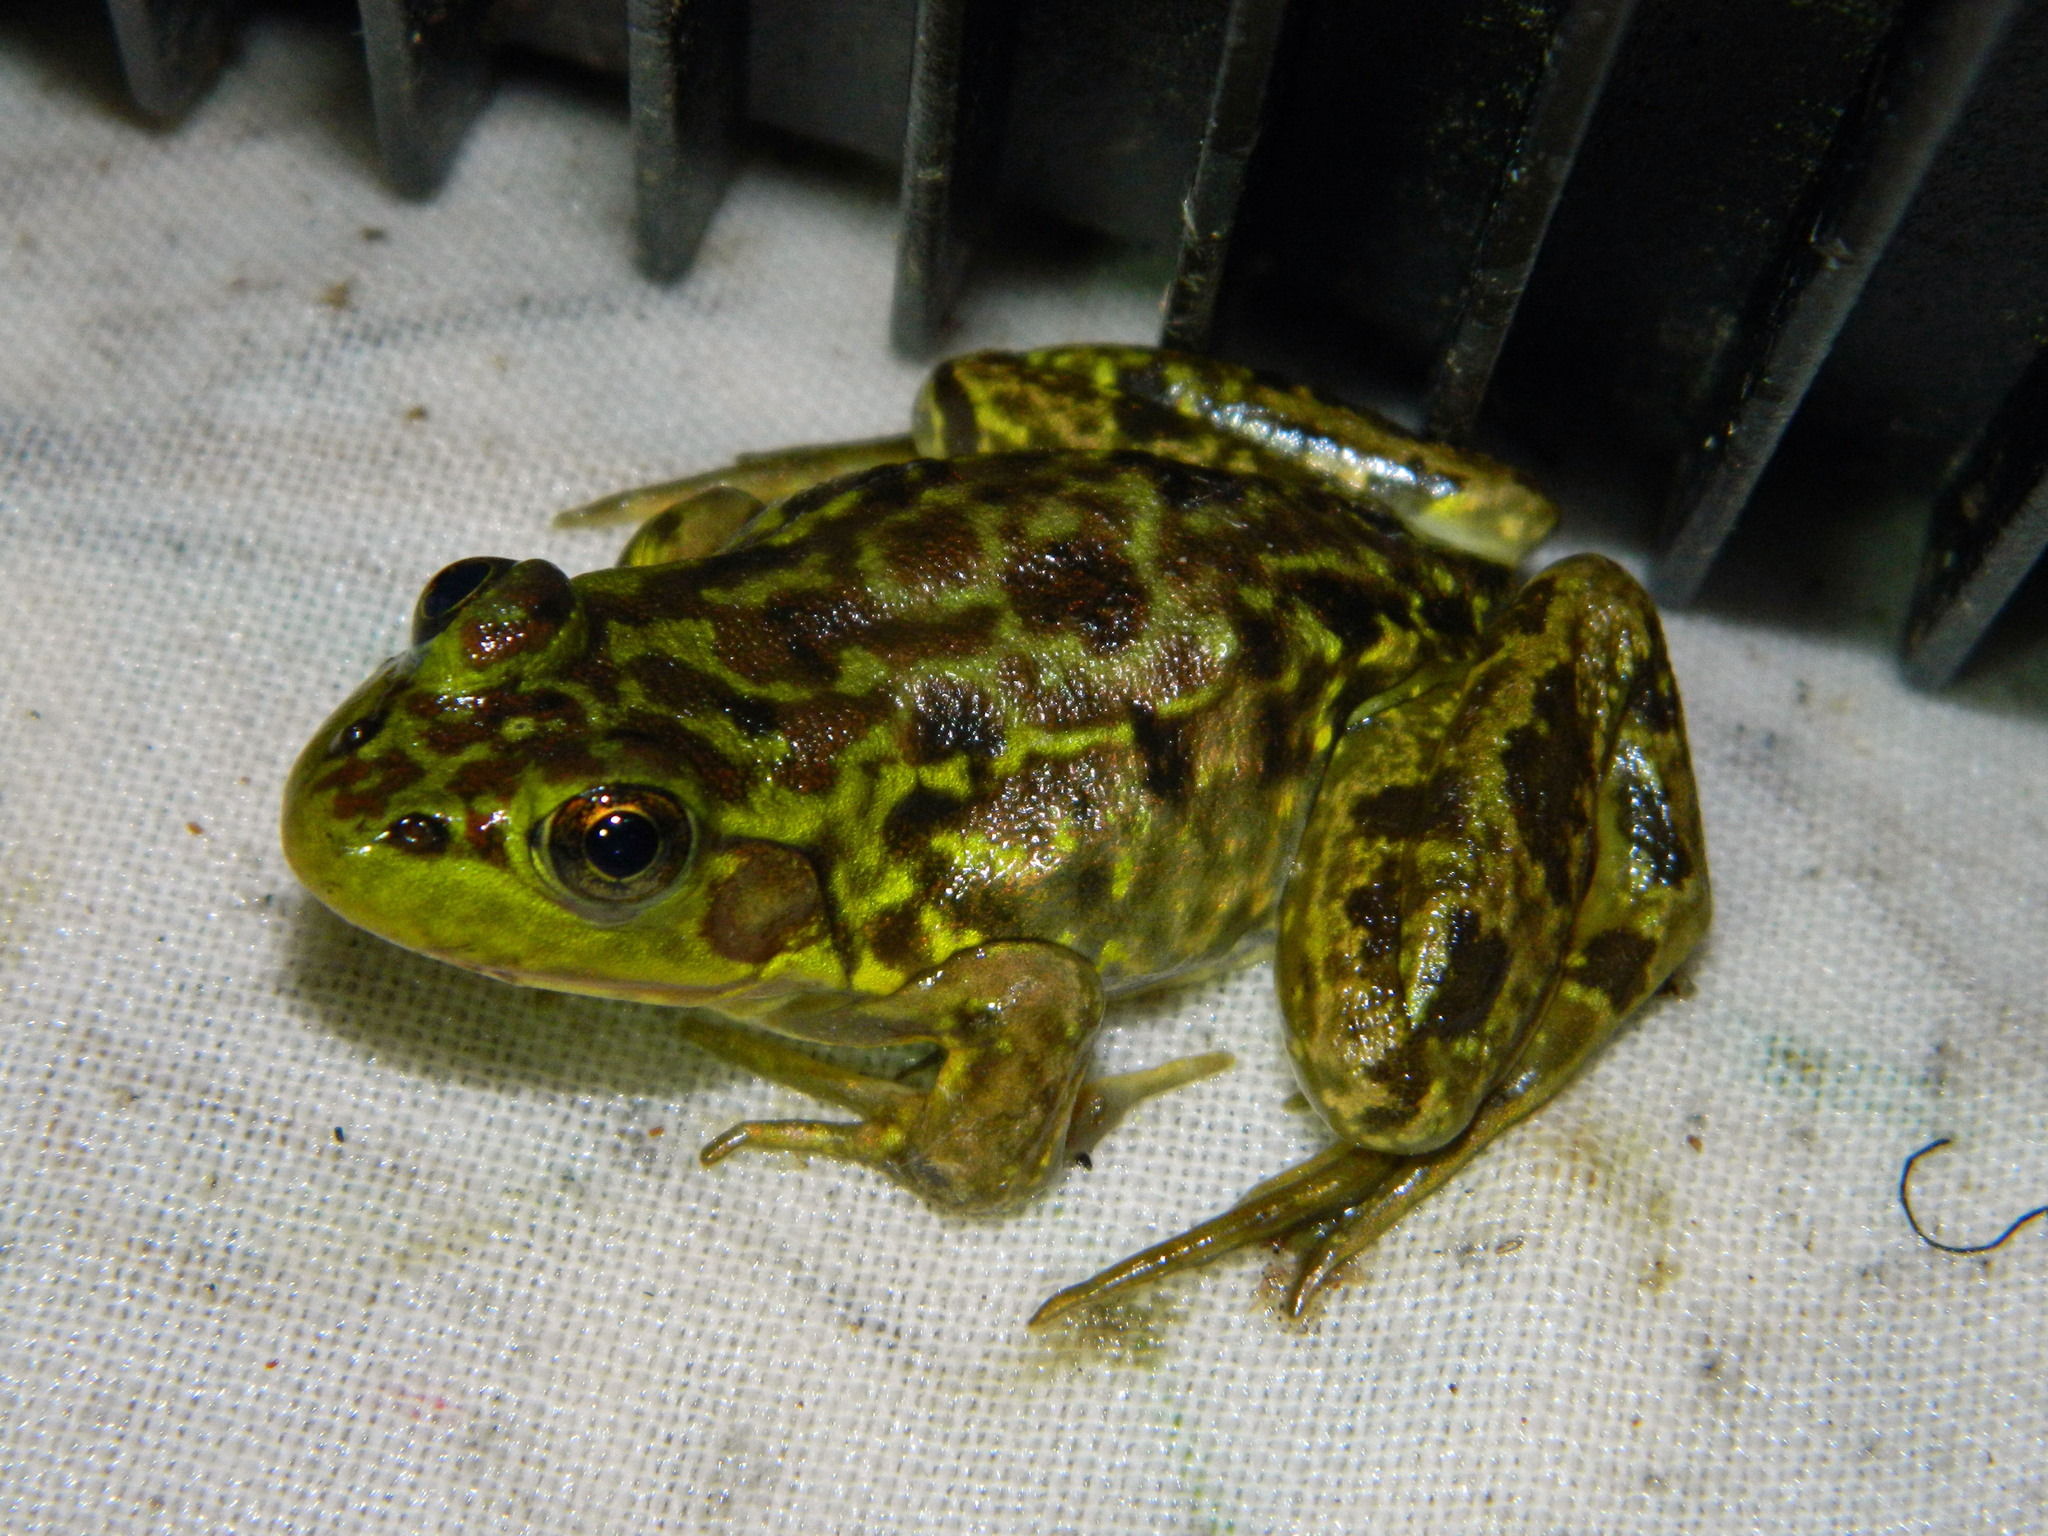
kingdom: Animalia
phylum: Chordata
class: Amphibia
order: Anura
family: Ranidae
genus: Lithobates
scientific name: Lithobates septentrionalis
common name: Mink frog
